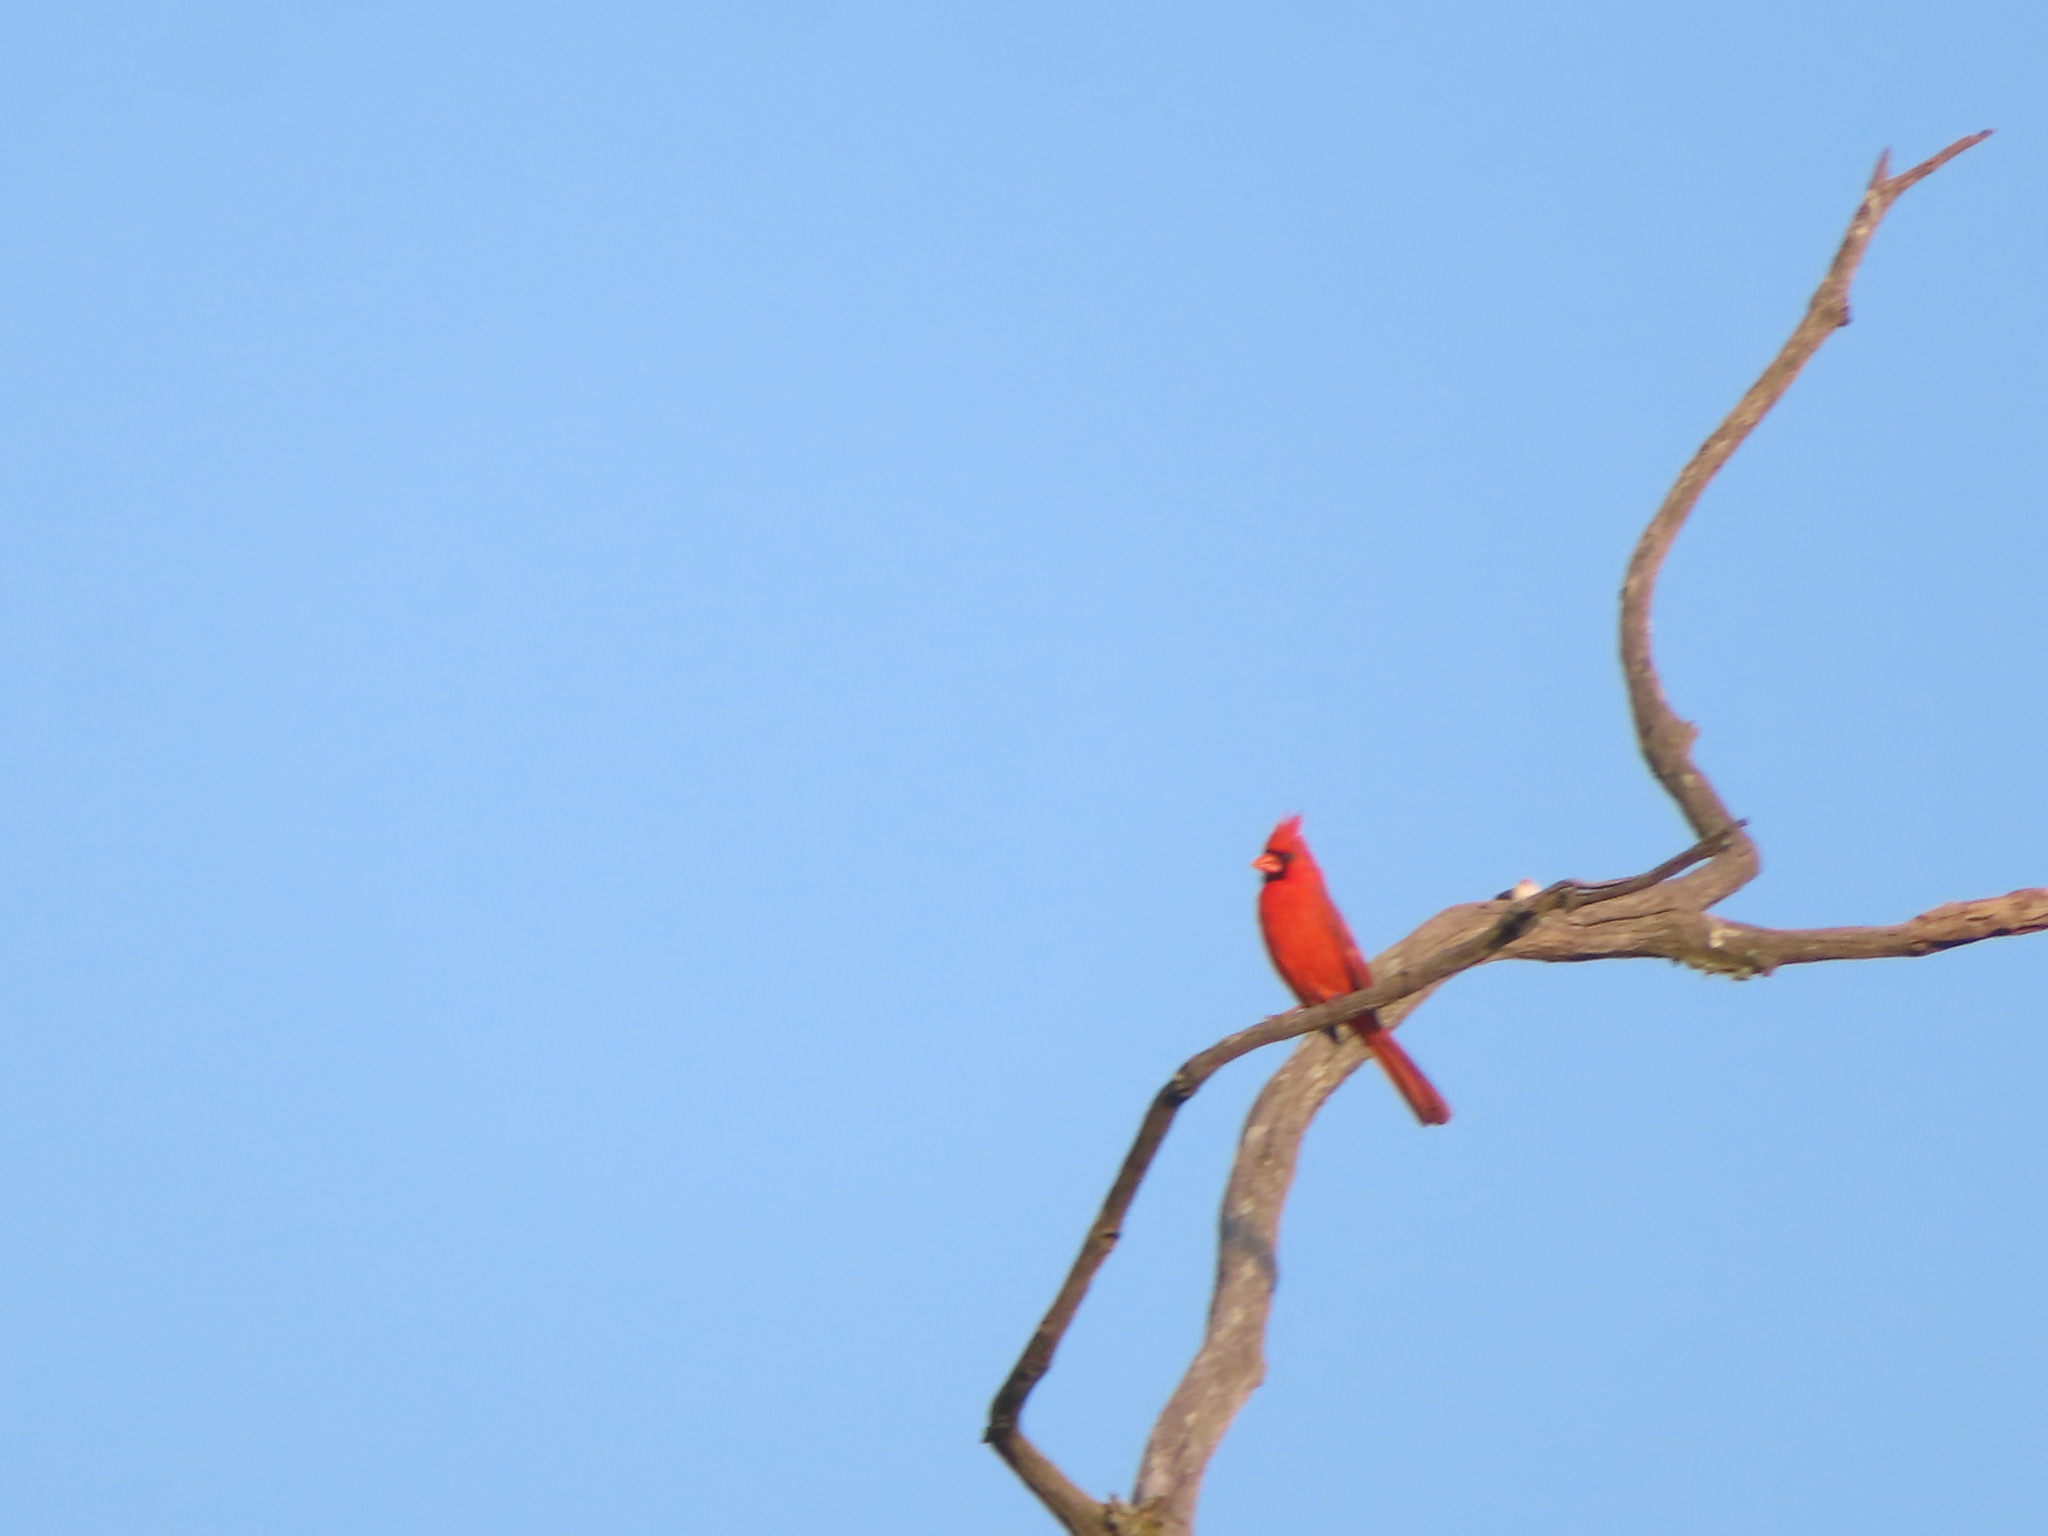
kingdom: Animalia
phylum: Chordata
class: Aves
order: Passeriformes
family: Cardinalidae
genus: Cardinalis
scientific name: Cardinalis cardinalis
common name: Northern cardinal
